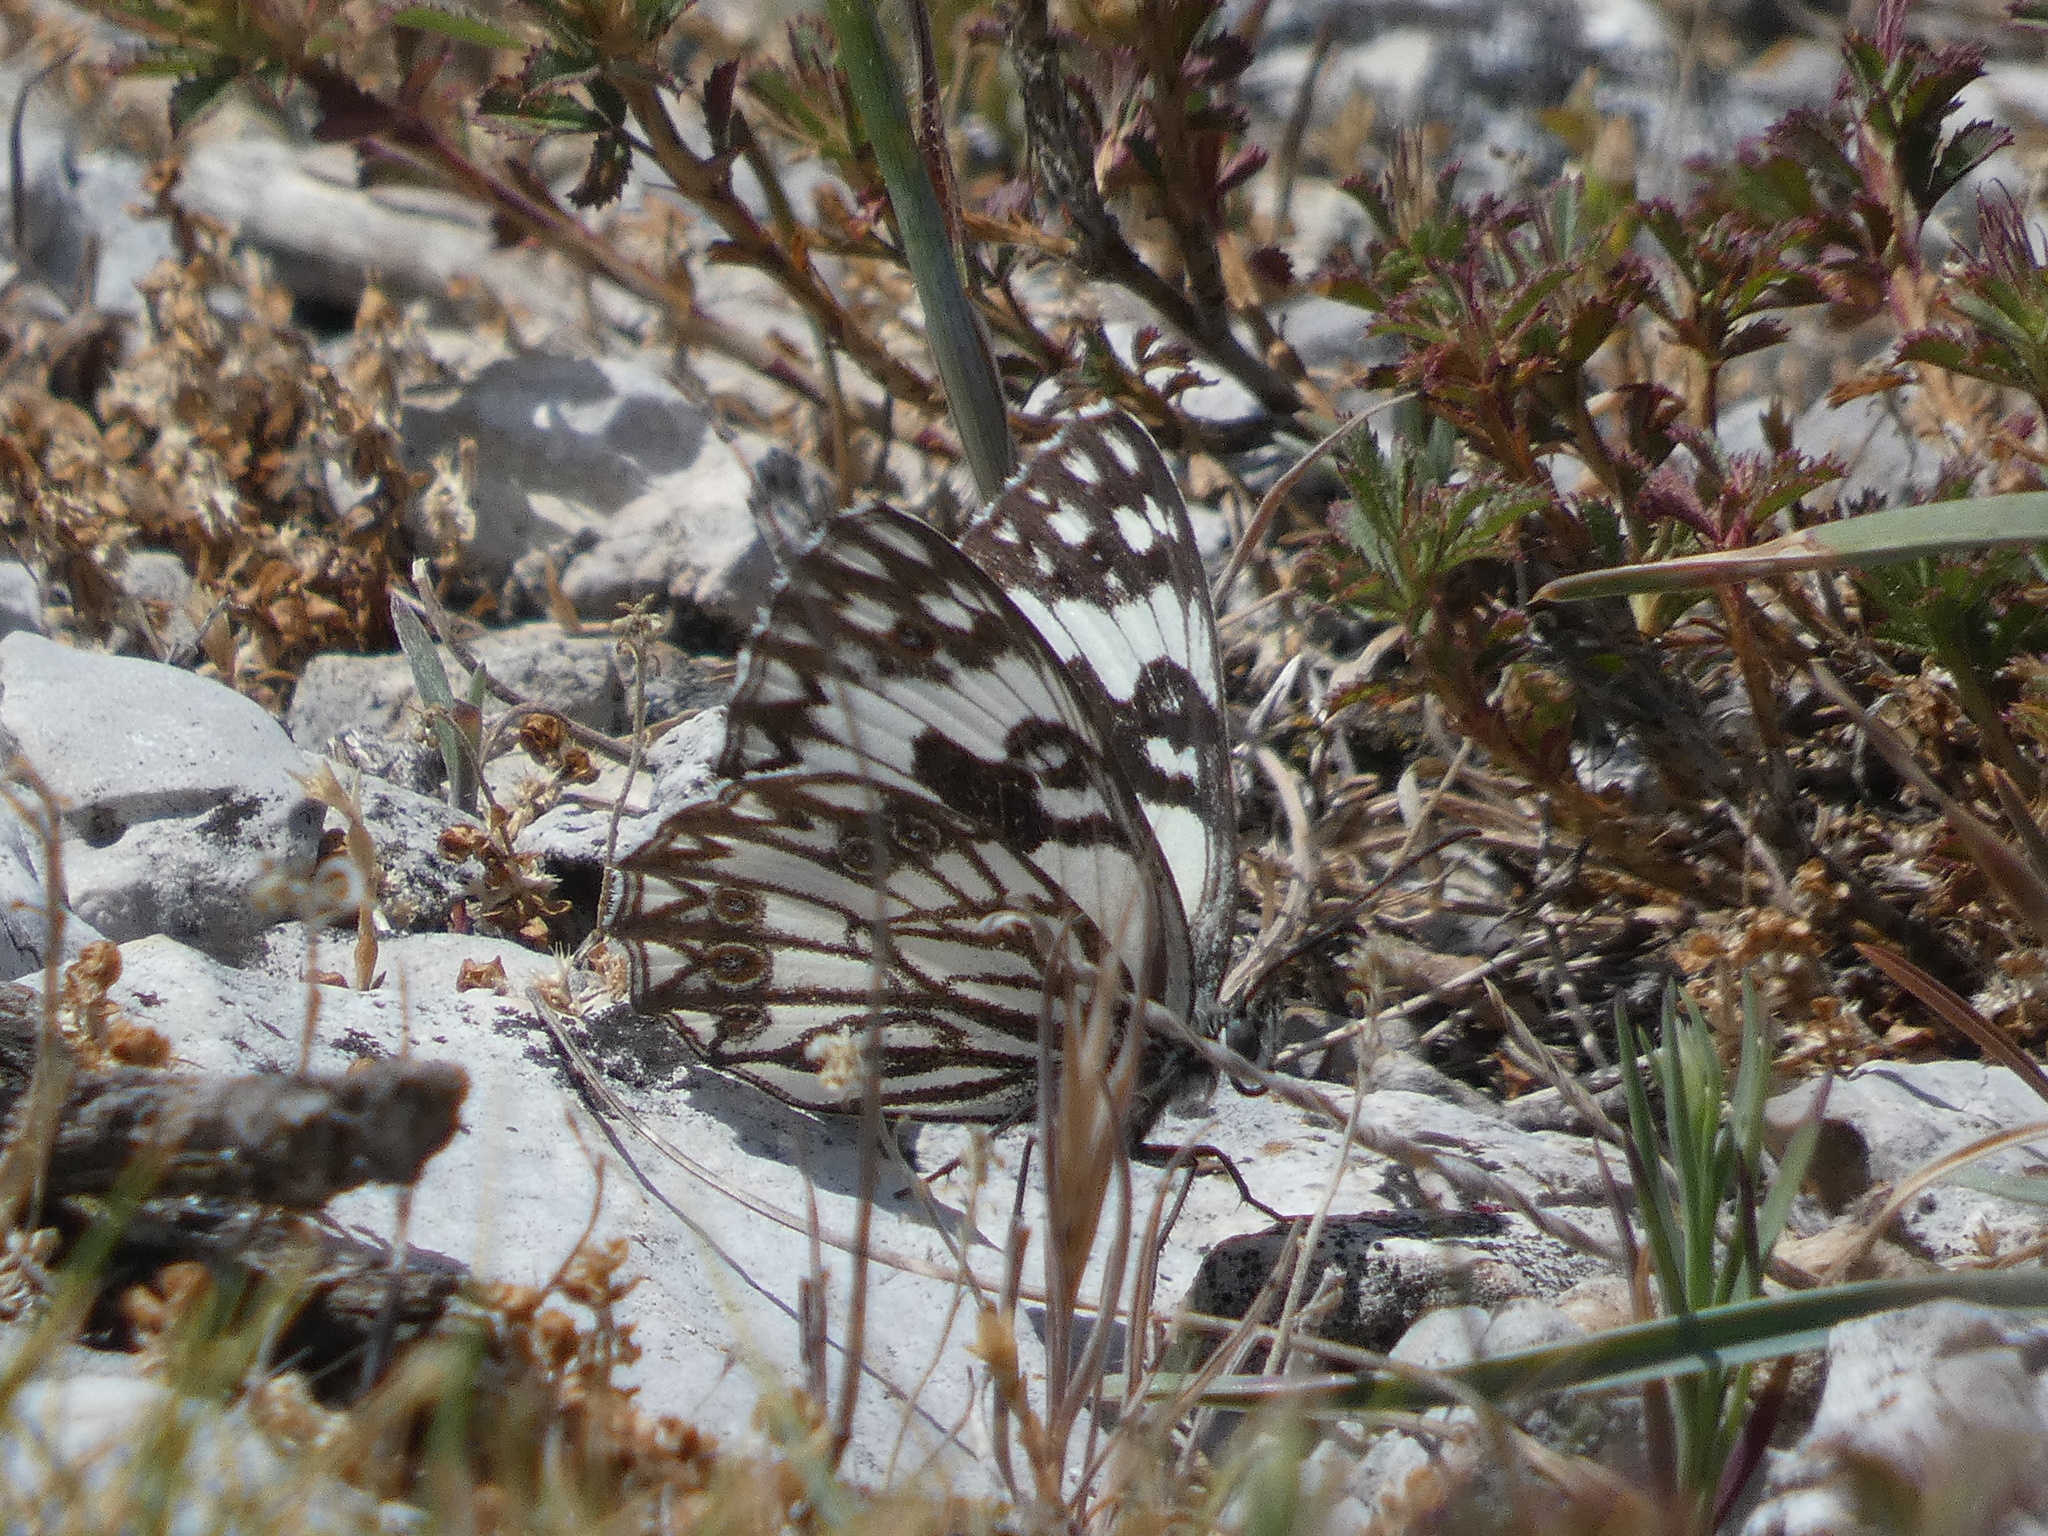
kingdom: Animalia
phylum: Arthropoda
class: Insecta
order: Lepidoptera
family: Nymphalidae
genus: Melanargia
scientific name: Melanargia occitanica
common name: Western marbled white
